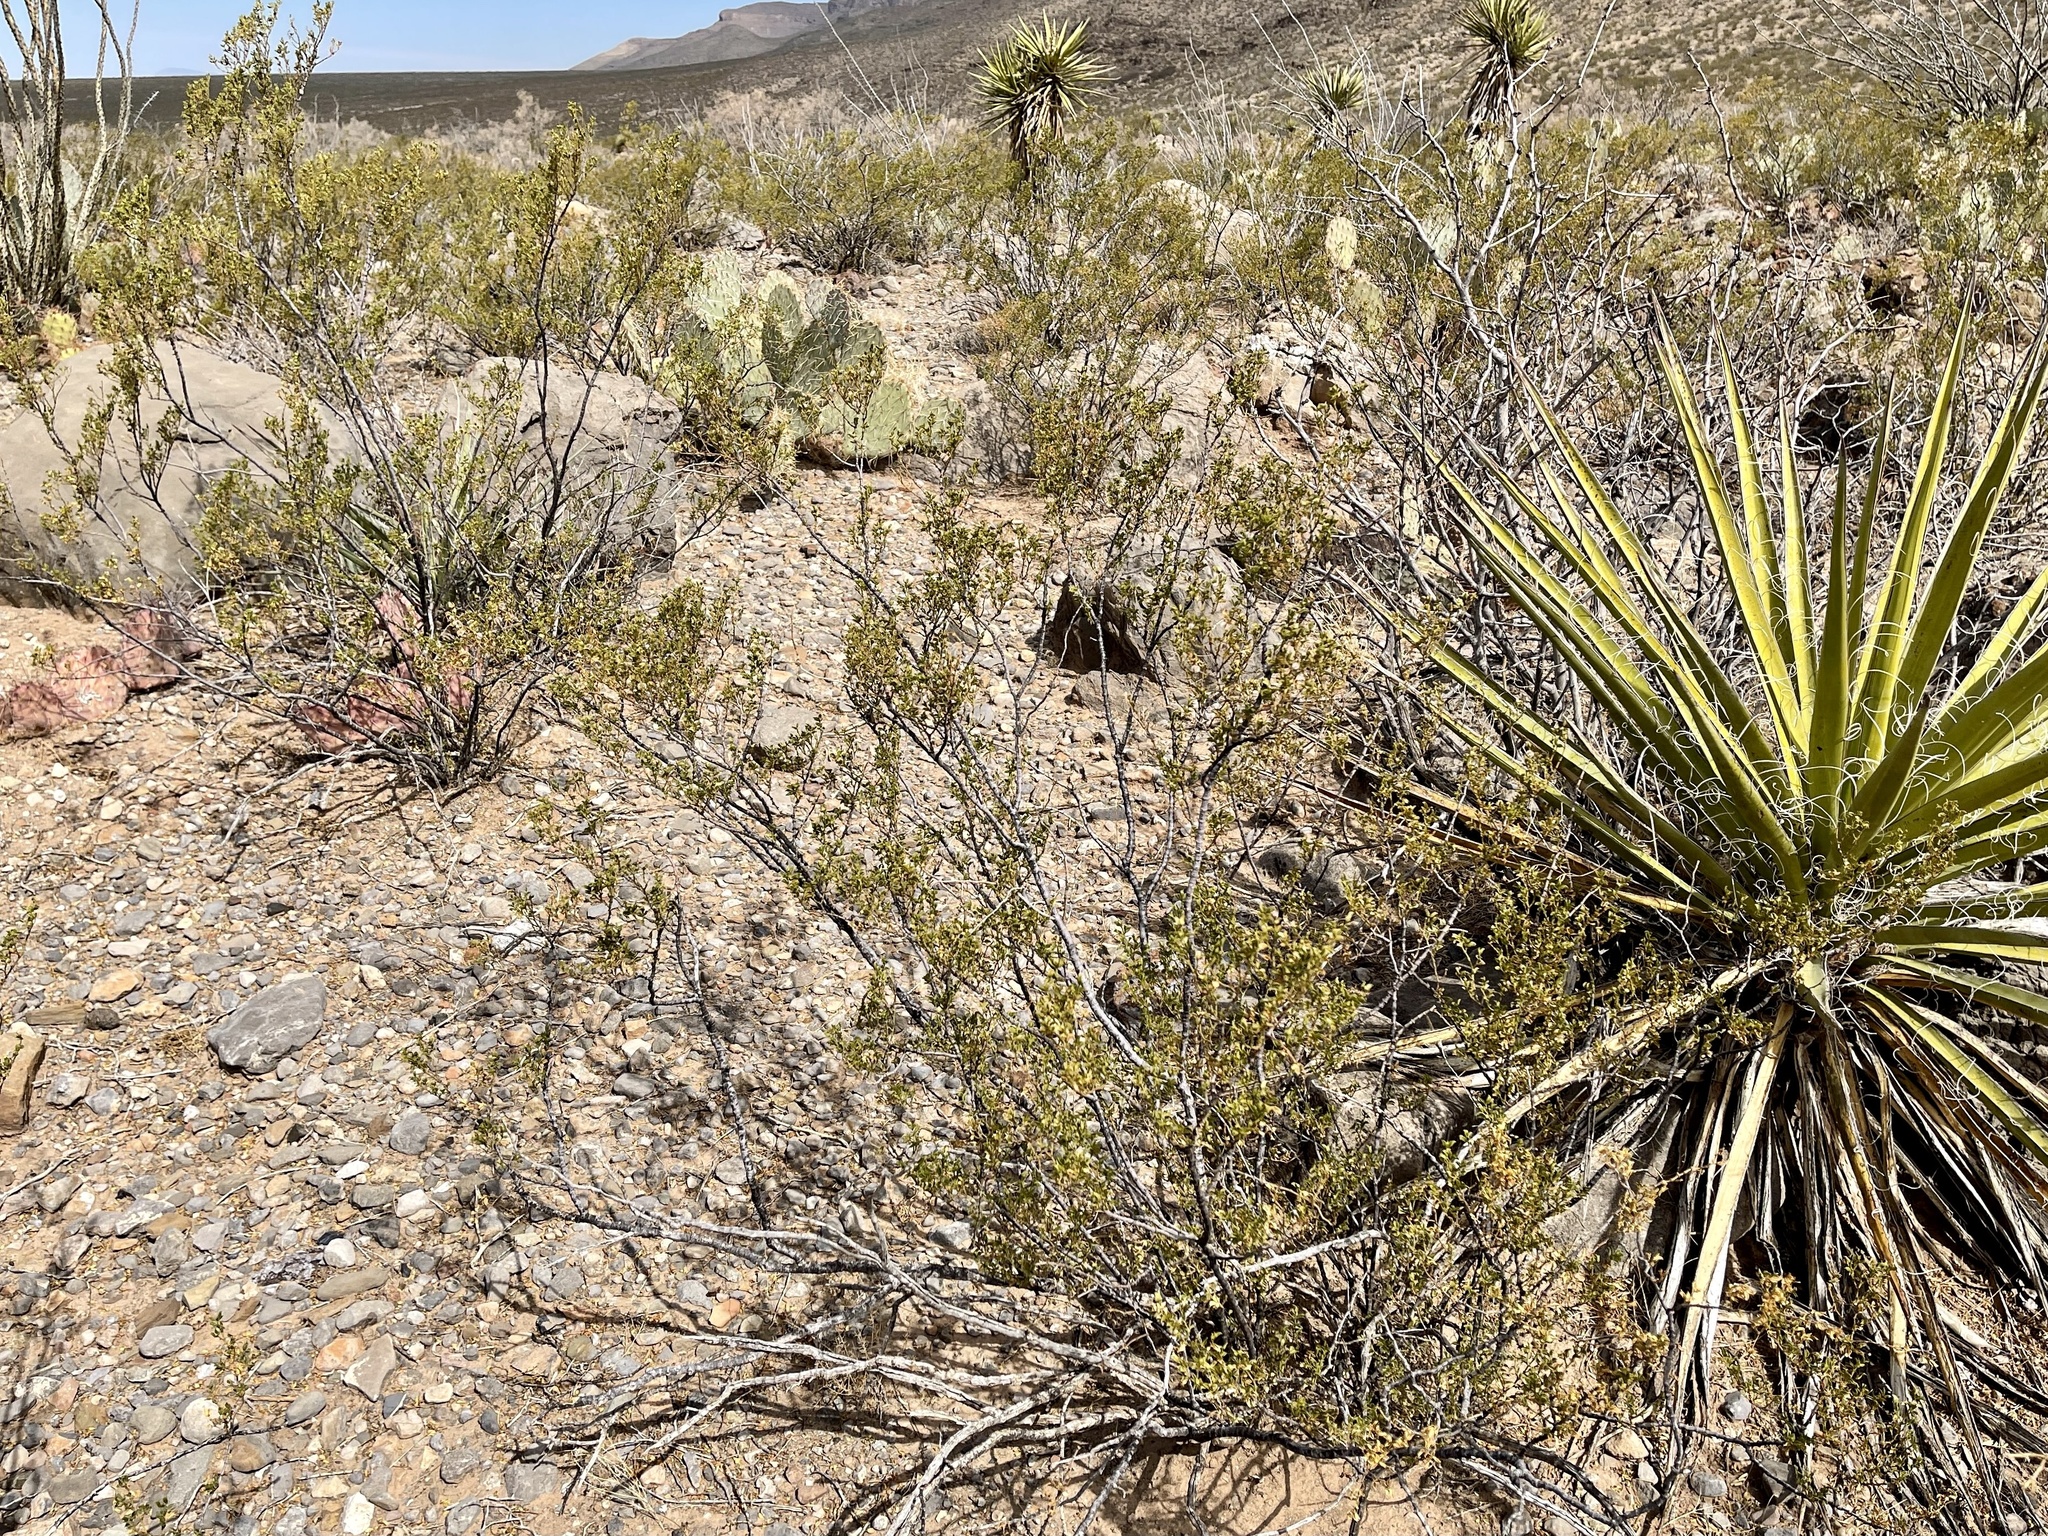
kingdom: Plantae
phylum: Tracheophyta
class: Magnoliopsida
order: Zygophyllales
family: Zygophyllaceae
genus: Larrea
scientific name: Larrea tridentata
